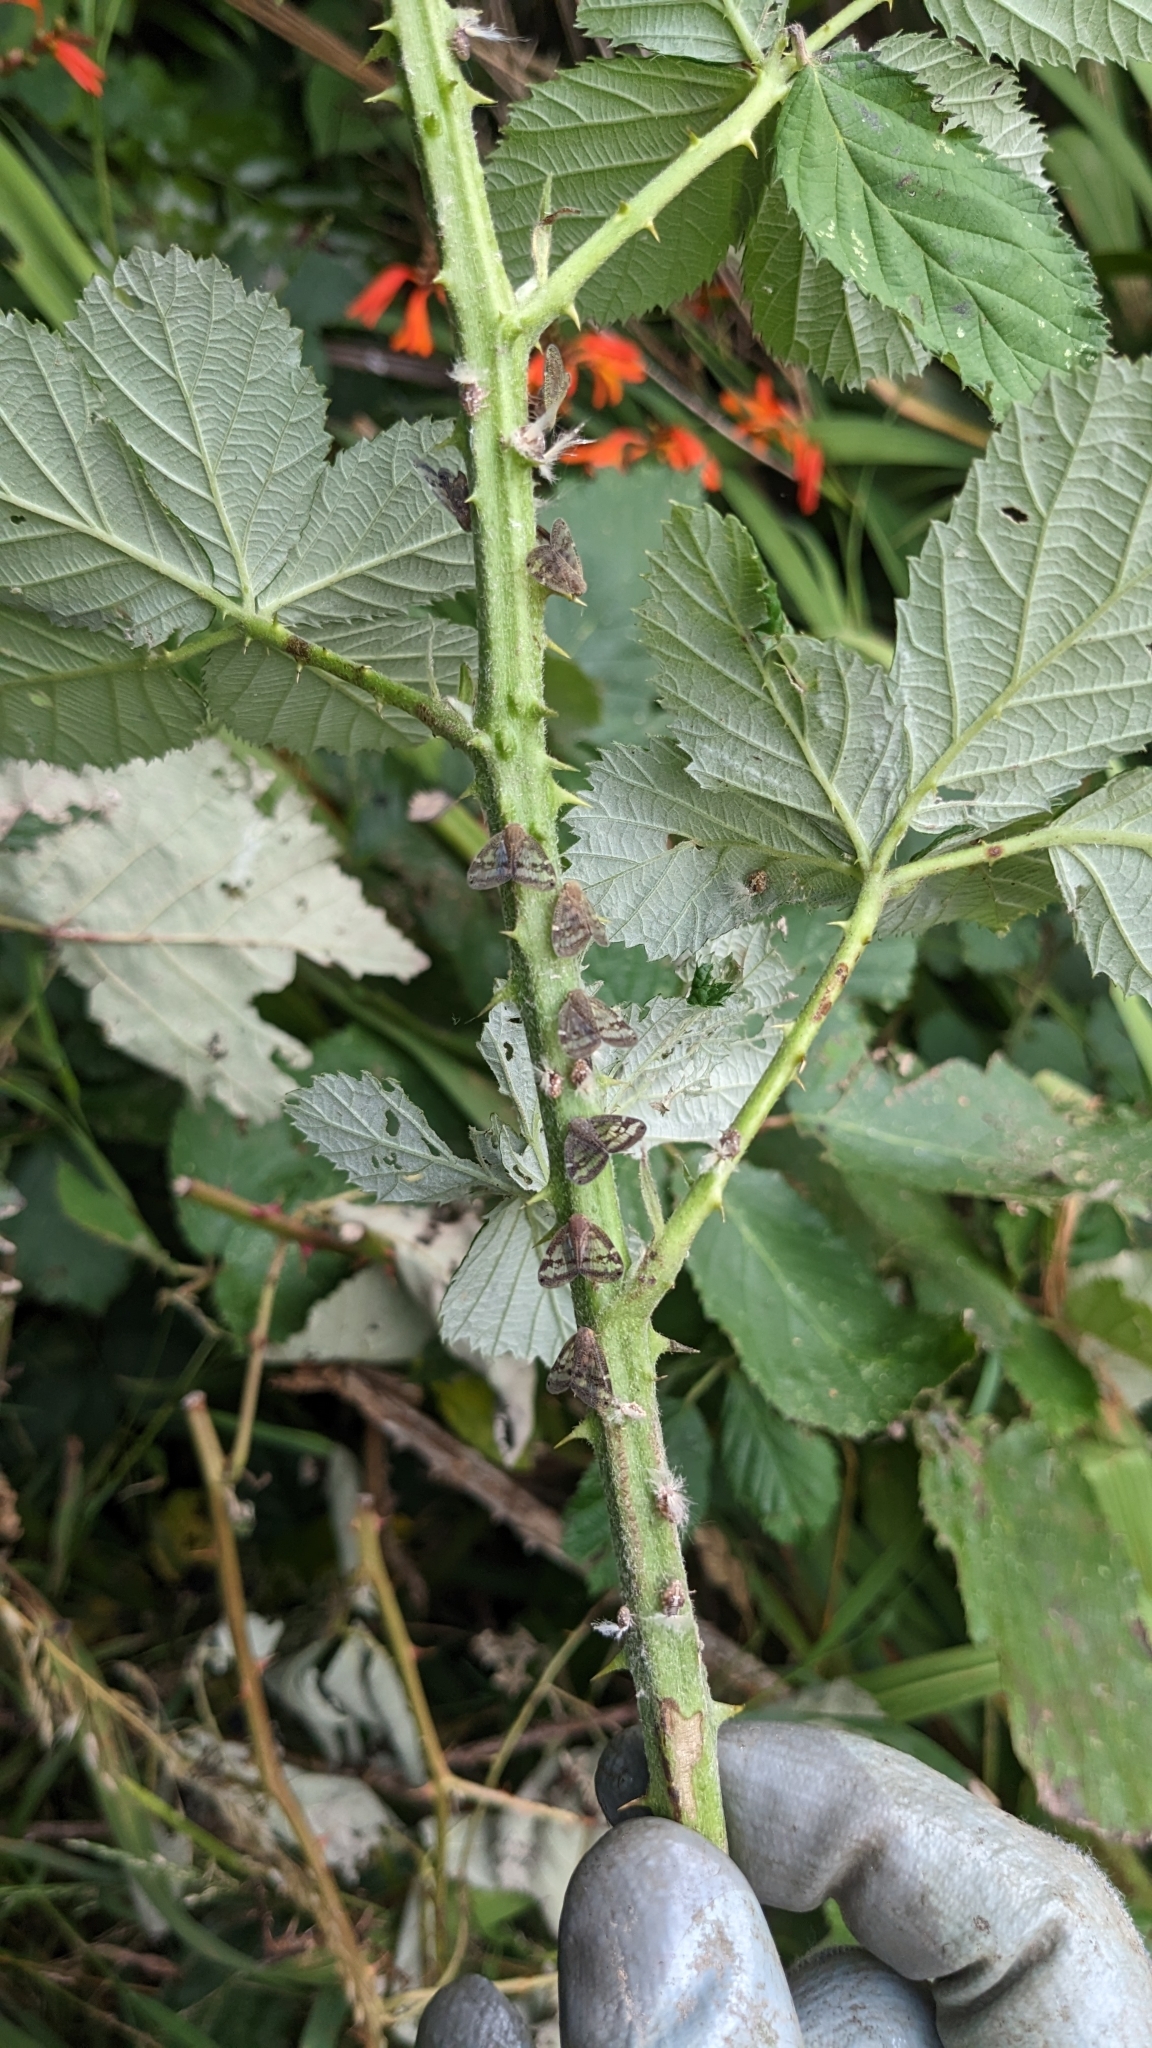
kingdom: Animalia
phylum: Arthropoda
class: Insecta
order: Hemiptera
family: Ricaniidae
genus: Scolypopa
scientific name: Scolypopa australis
